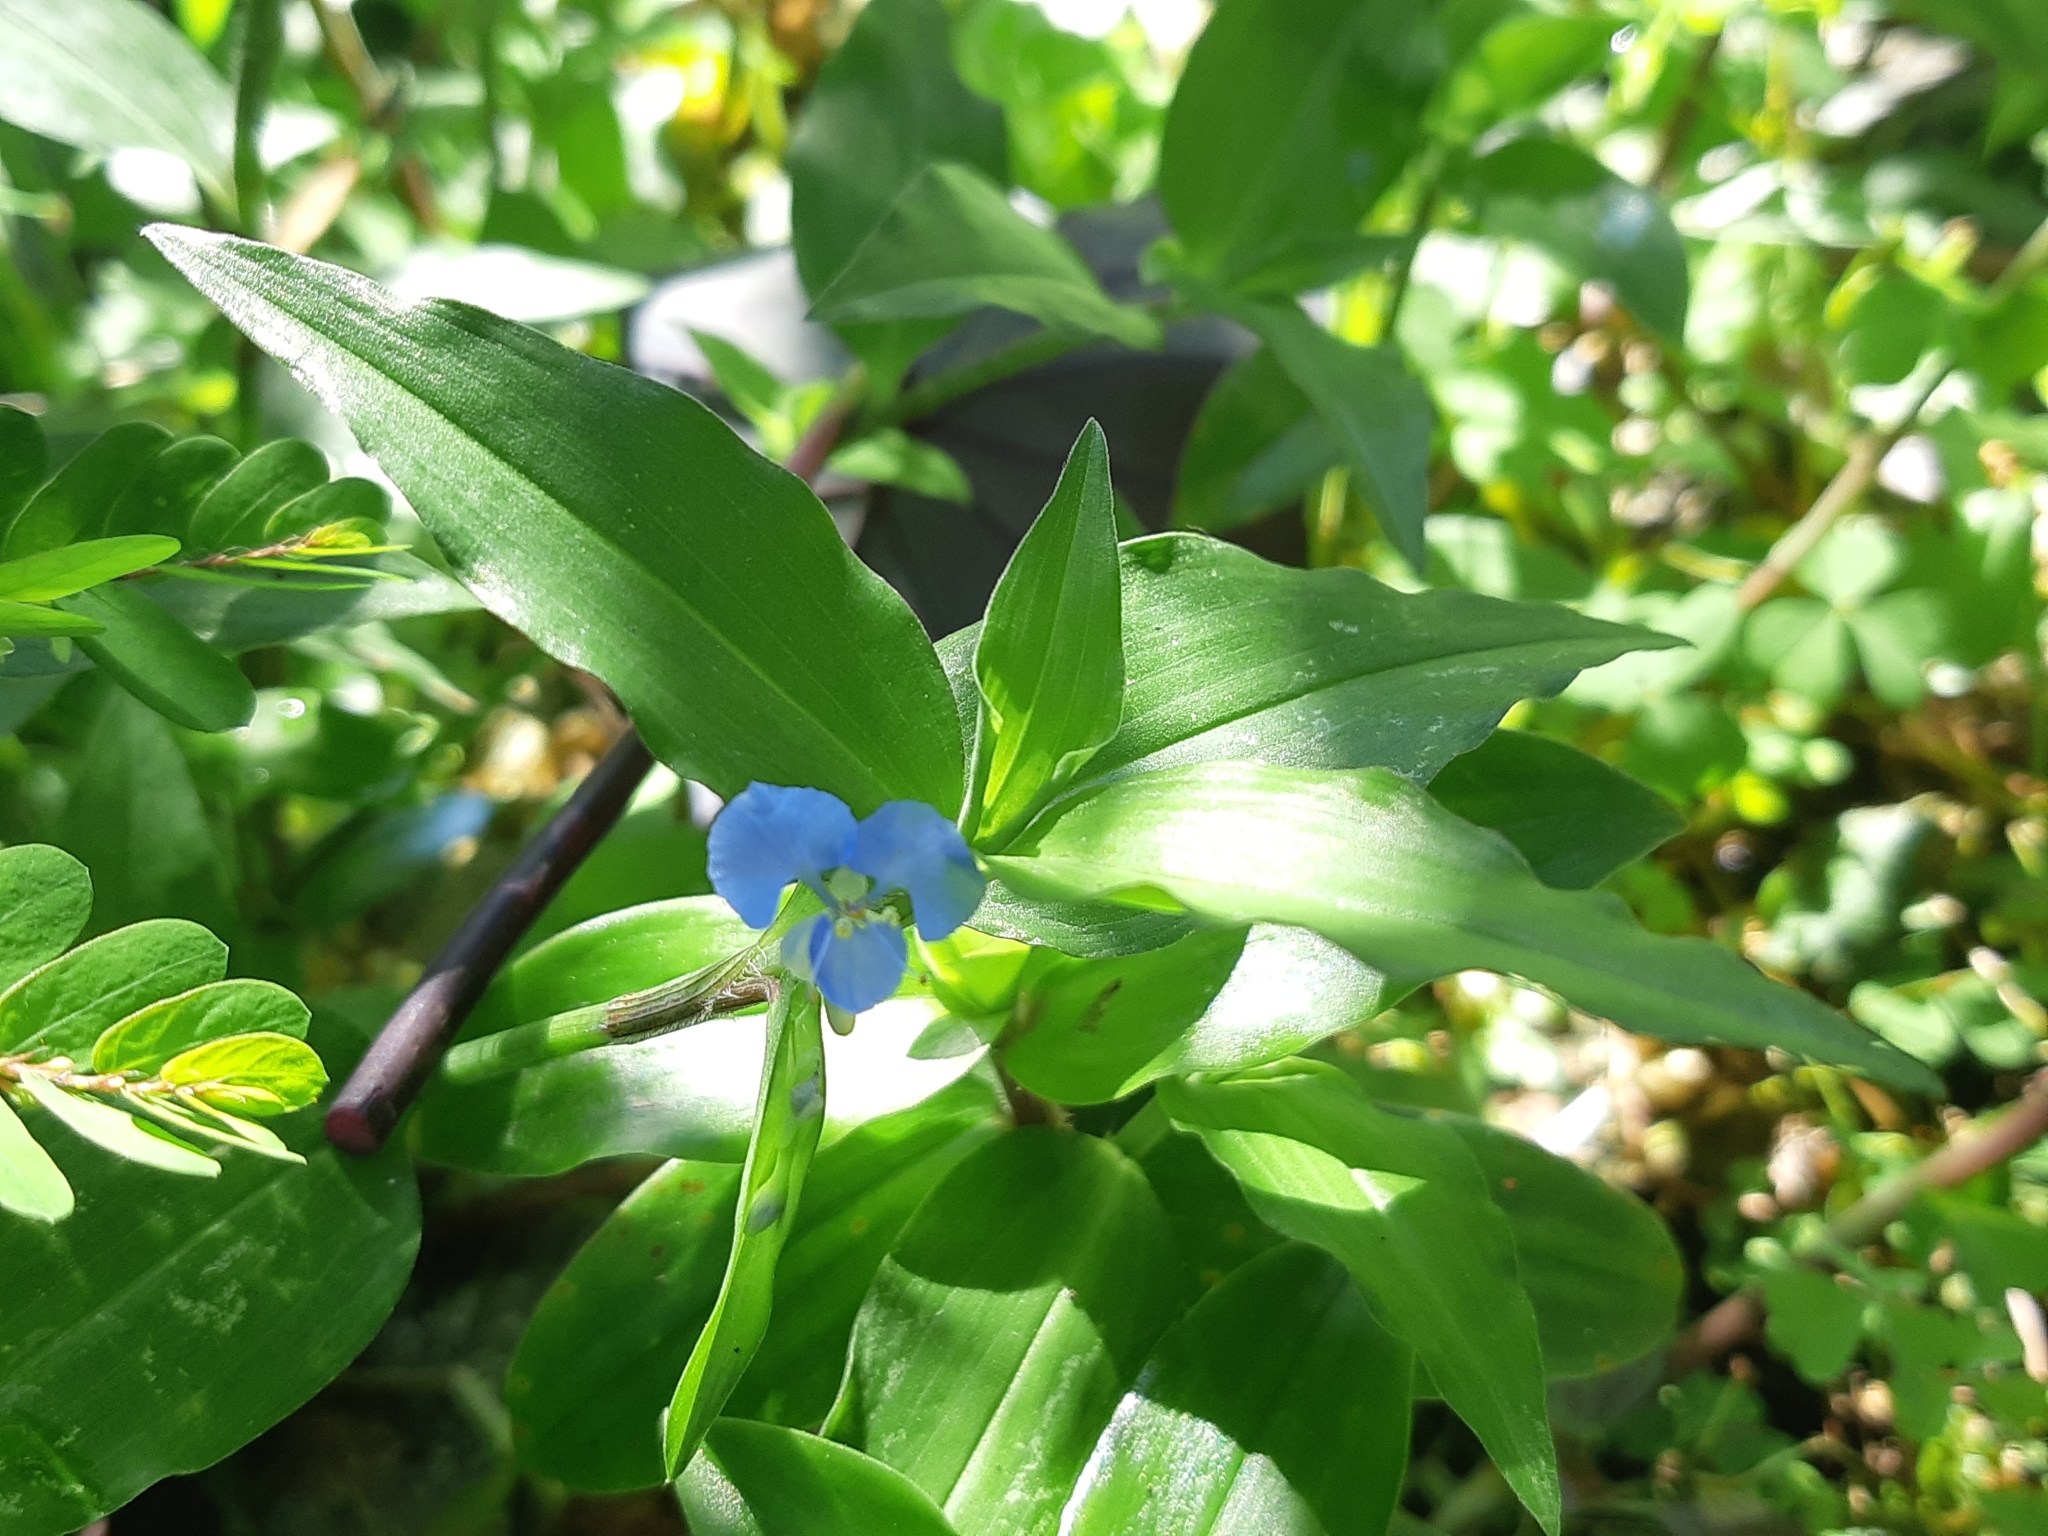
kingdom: Plantae
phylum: Tracheophyta
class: Liliopsida
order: Commelinales
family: Commelinaceae
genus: Commelina
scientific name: Commelina diffusa
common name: Climbing dayflower
